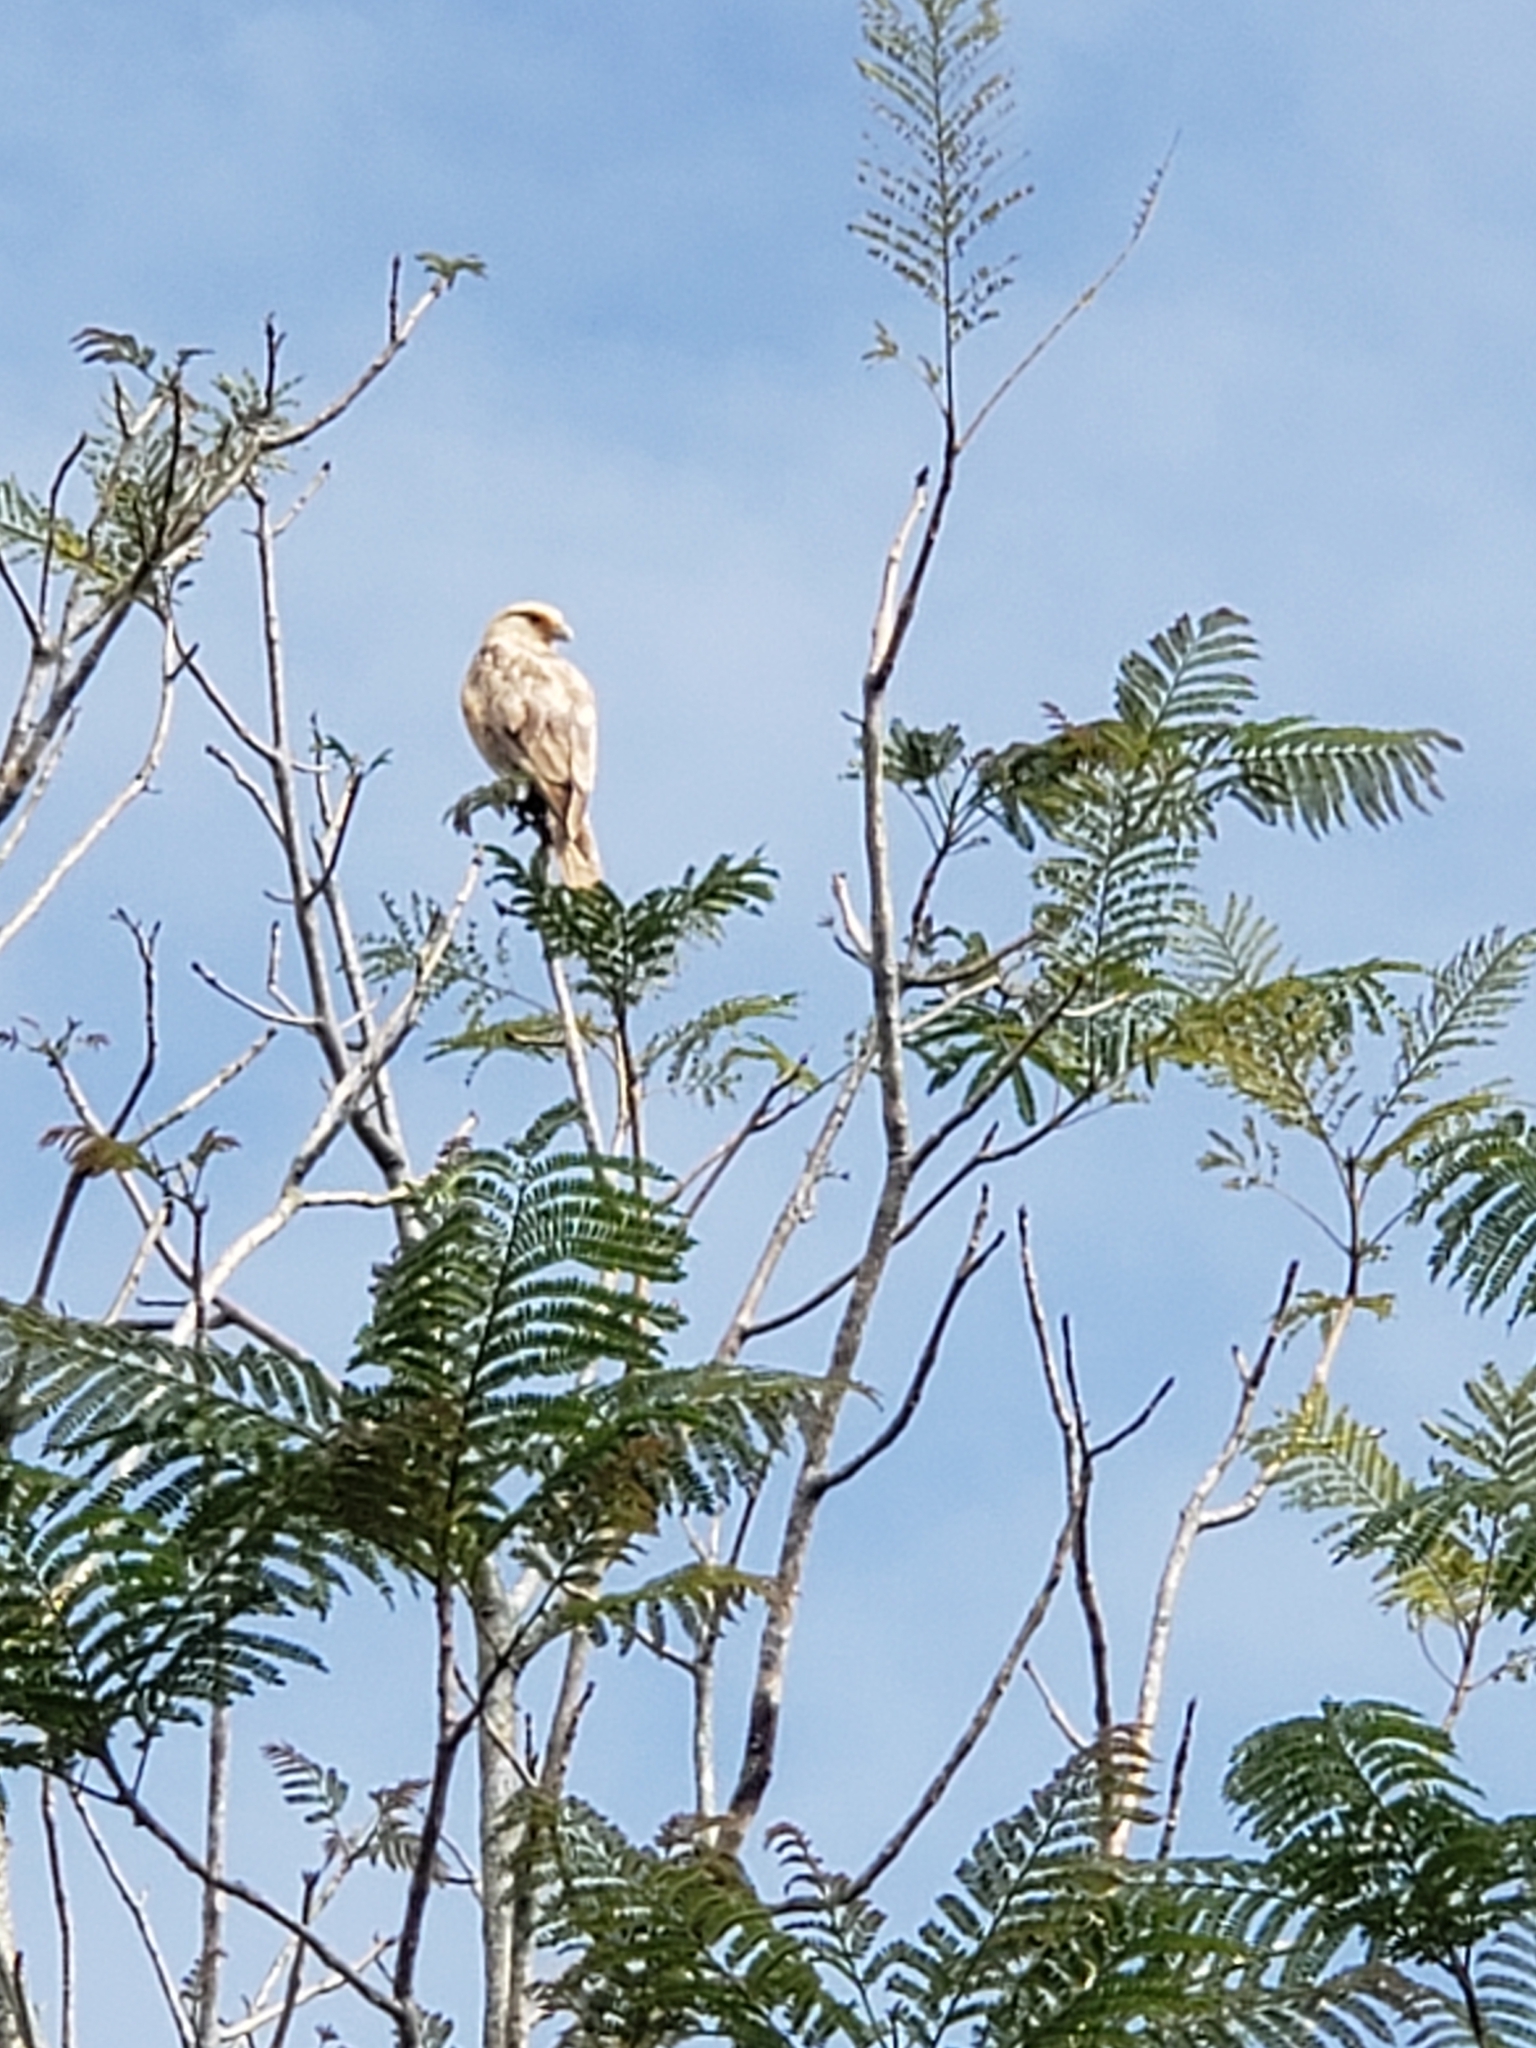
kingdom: Animalia
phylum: Chordata
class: Aves
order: Falconiformes
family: Falconidae
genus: Daptrius
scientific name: Daptrius
